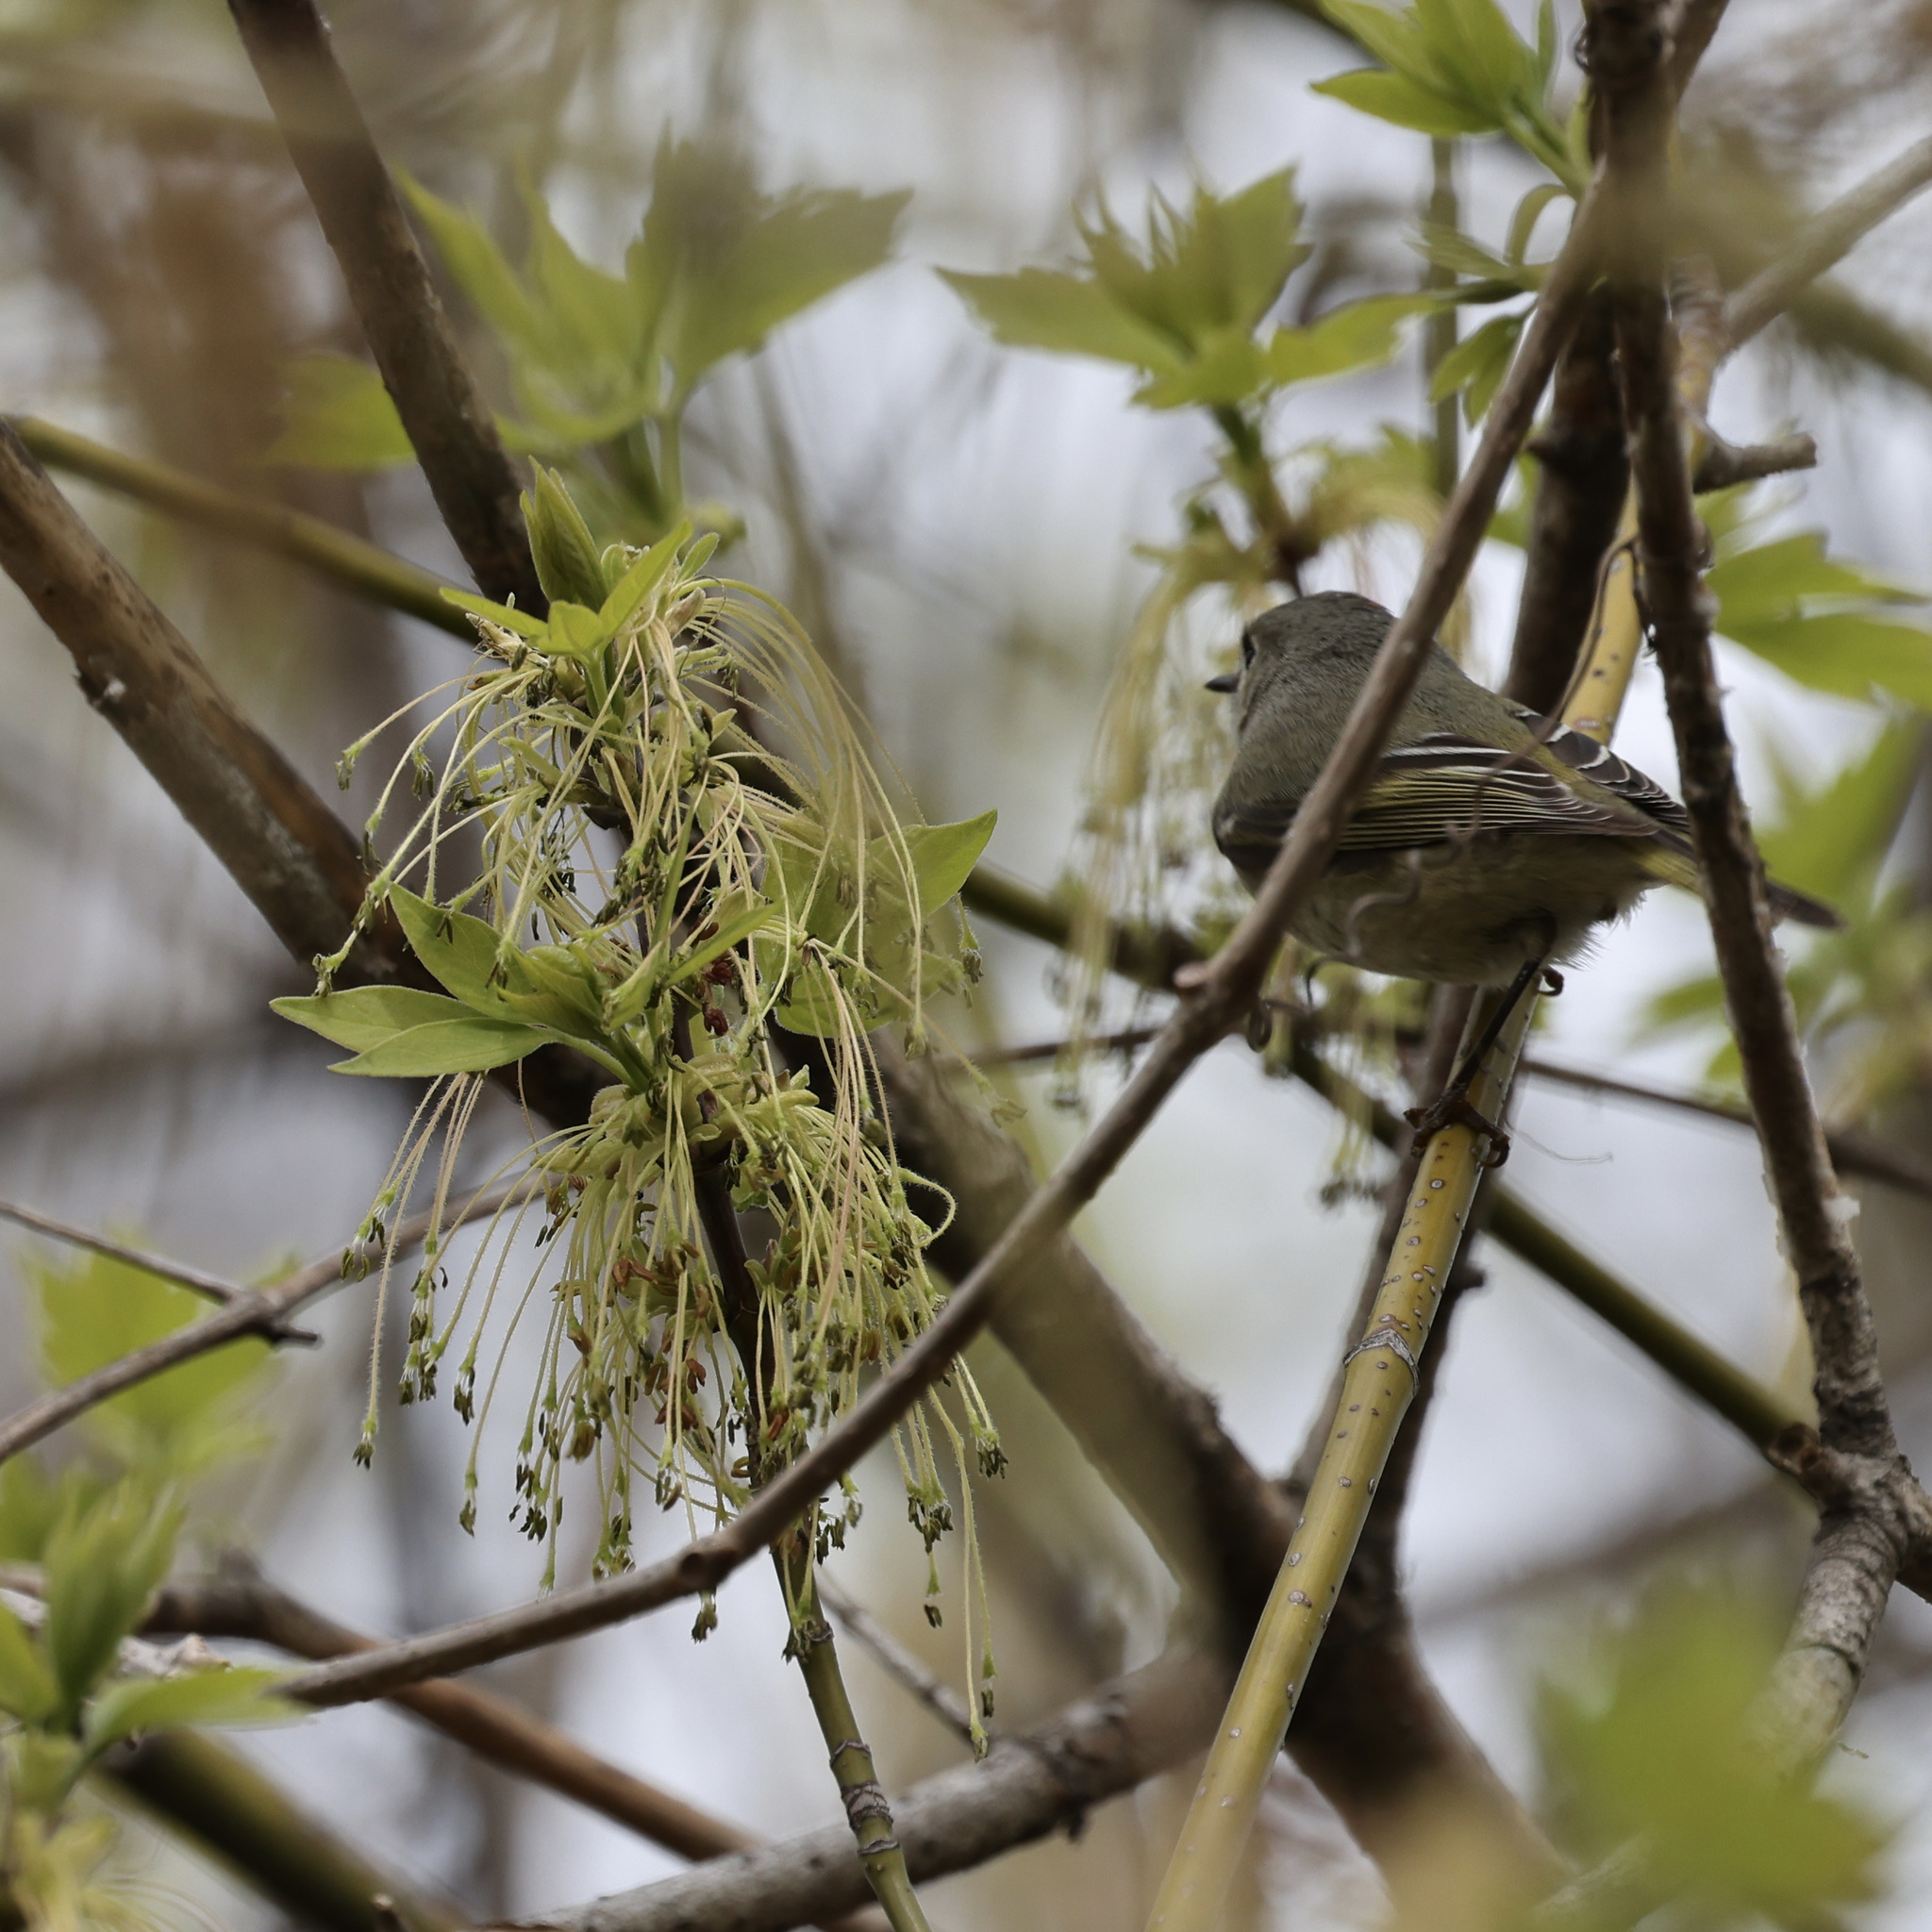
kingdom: Animalia
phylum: Chordata
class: Aves
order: Passeriformes
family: Regulidae
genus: Regulus
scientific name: Regulus calendula
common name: Ruby-crowned kinglet
